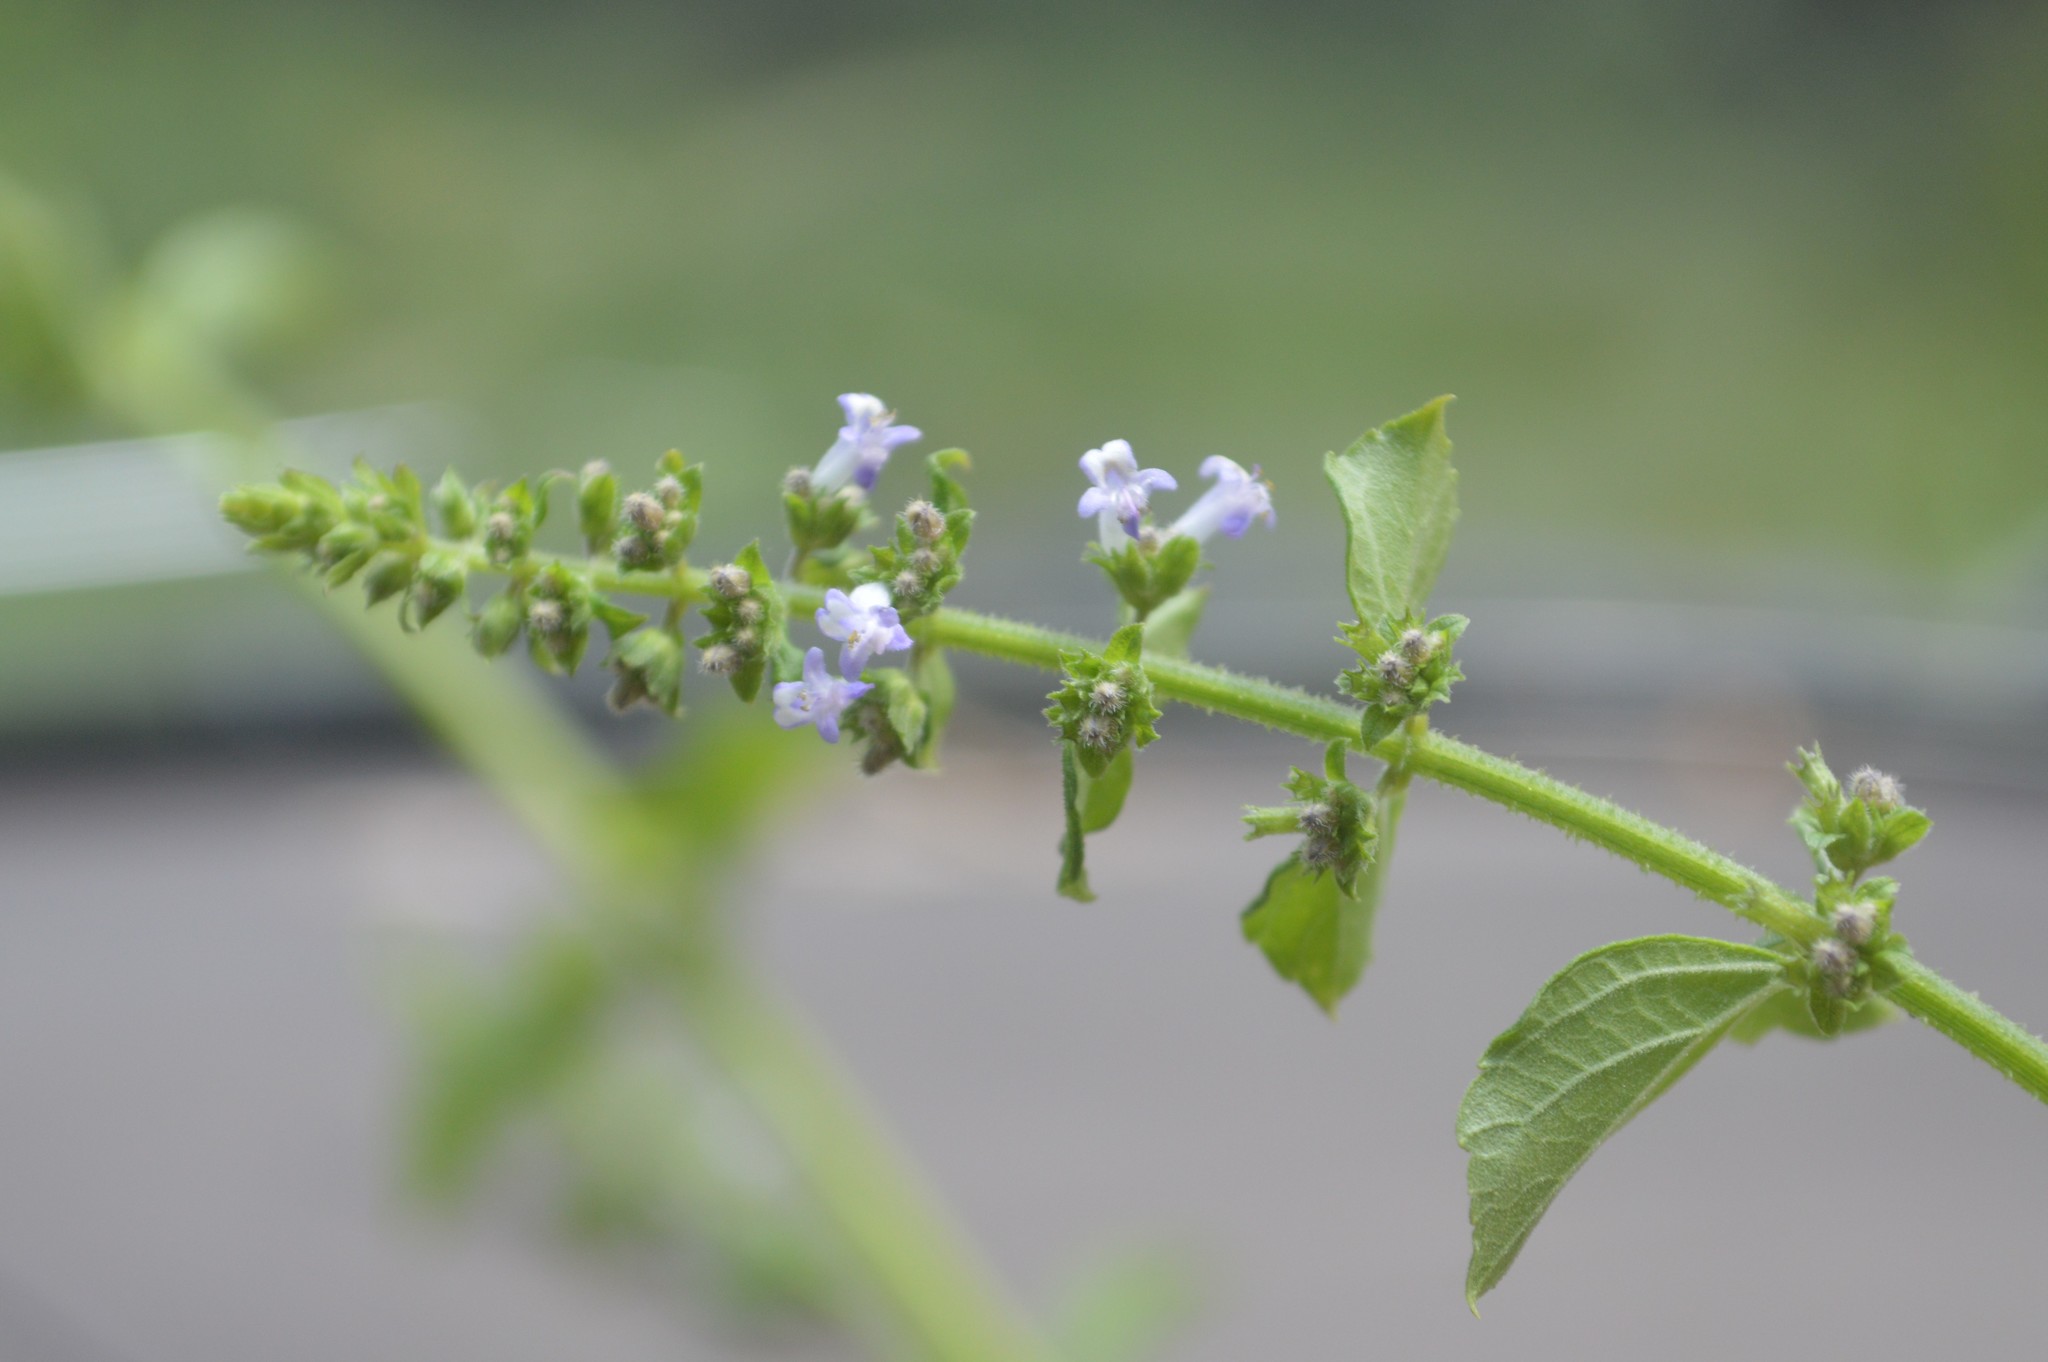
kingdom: Plantae
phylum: Tracheophyta
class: Magnoliopsida
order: Lamiales
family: Lamiaceae
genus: Cantinoa
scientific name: Cantinoa mutabilis
